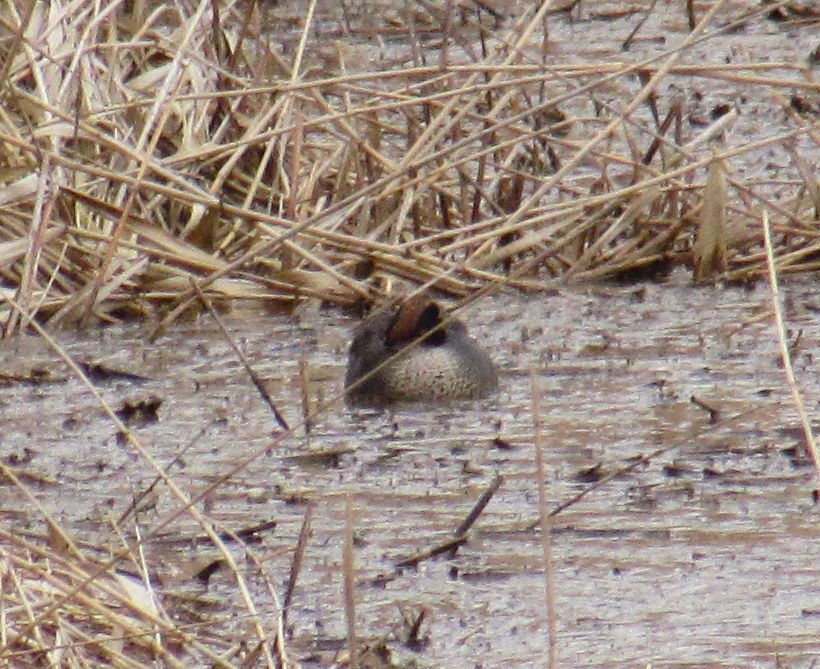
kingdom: Animalia
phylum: Chordata
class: Aves
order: Anseriformes
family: Anatidae
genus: Anas
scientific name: Anas crecca
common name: Eurasian teal
